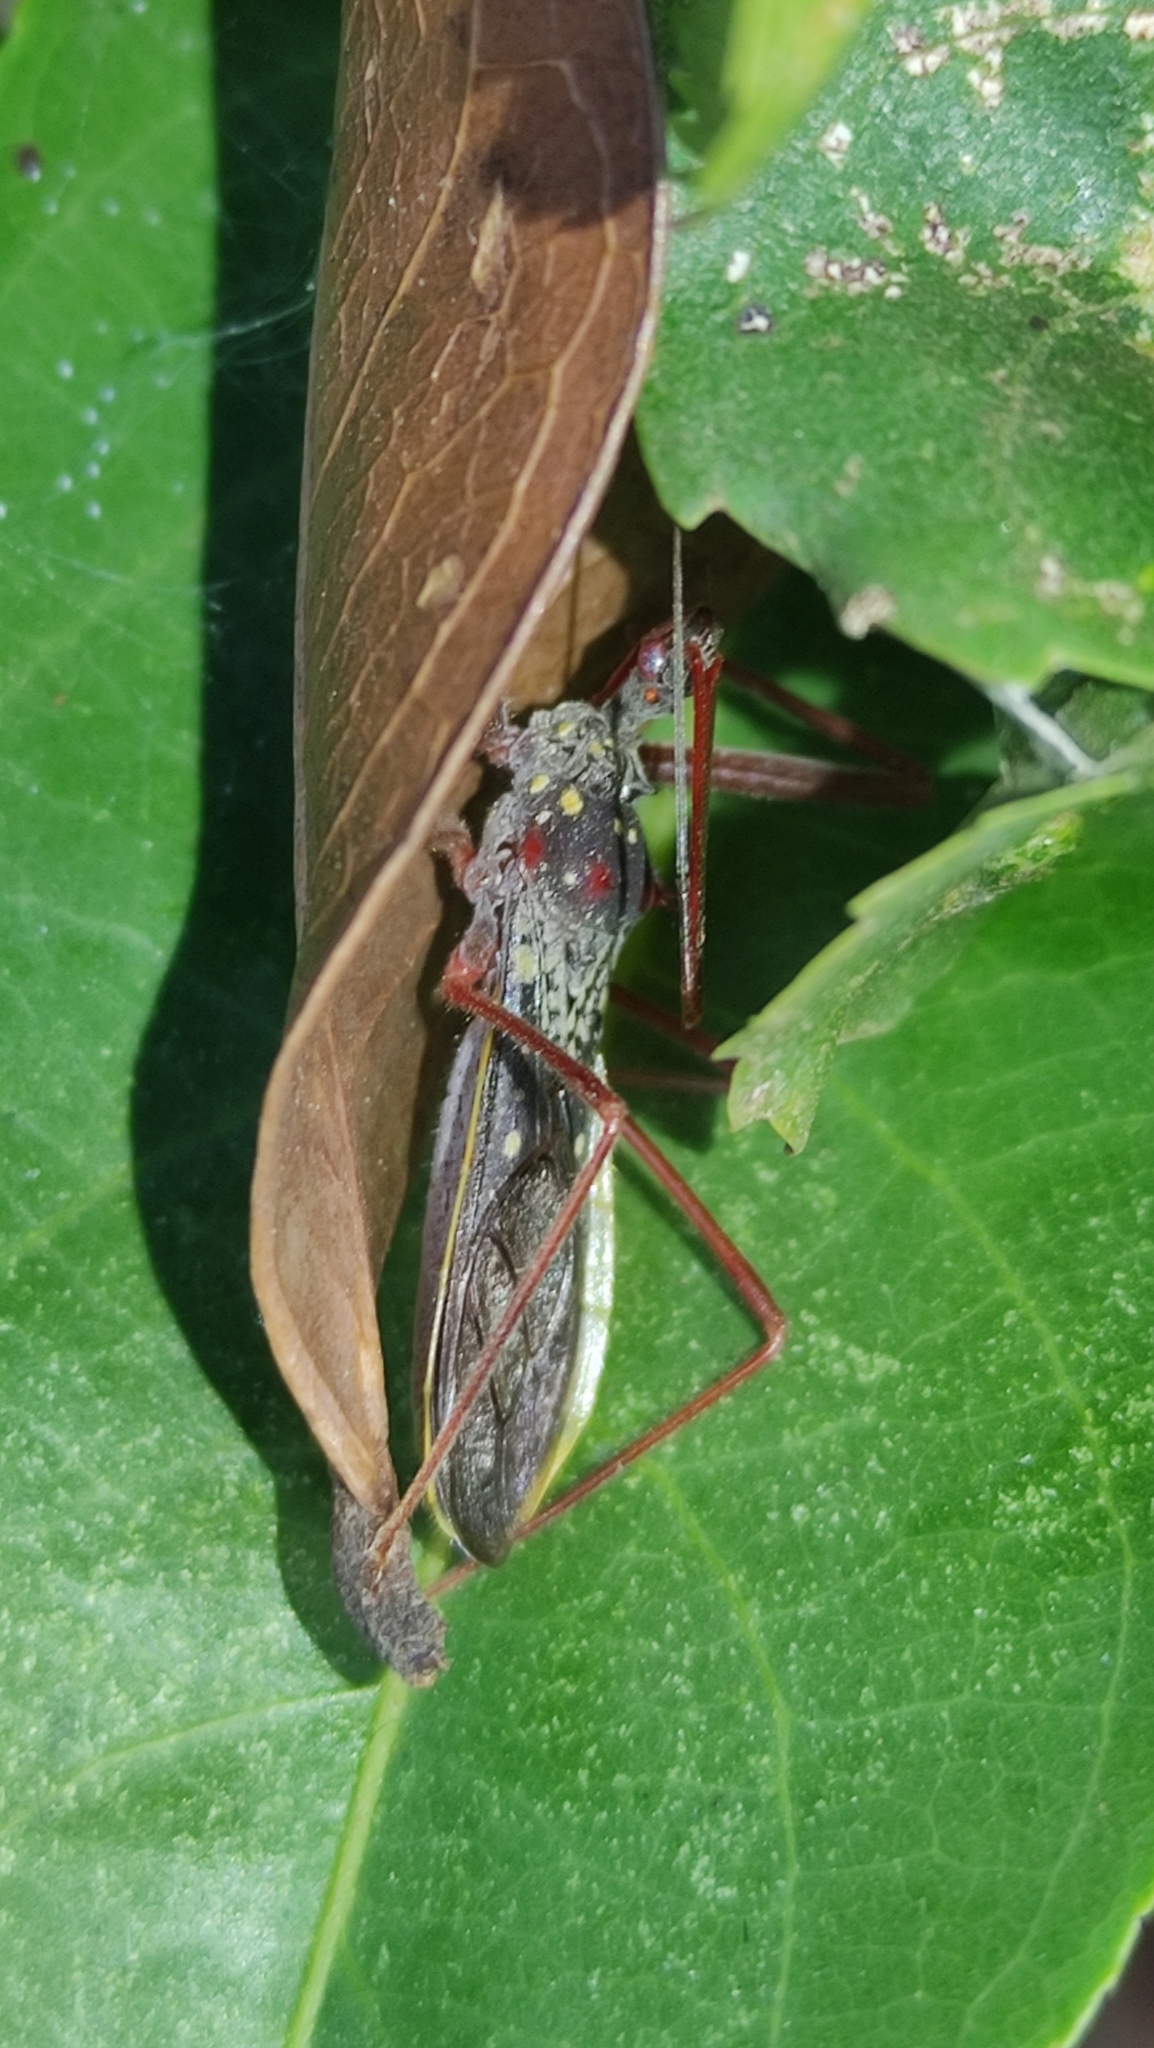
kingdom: Animalia
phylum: Arthropoda
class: Insecta
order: Hemiptera
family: Reduviidae
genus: Heza
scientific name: Heza binotata
